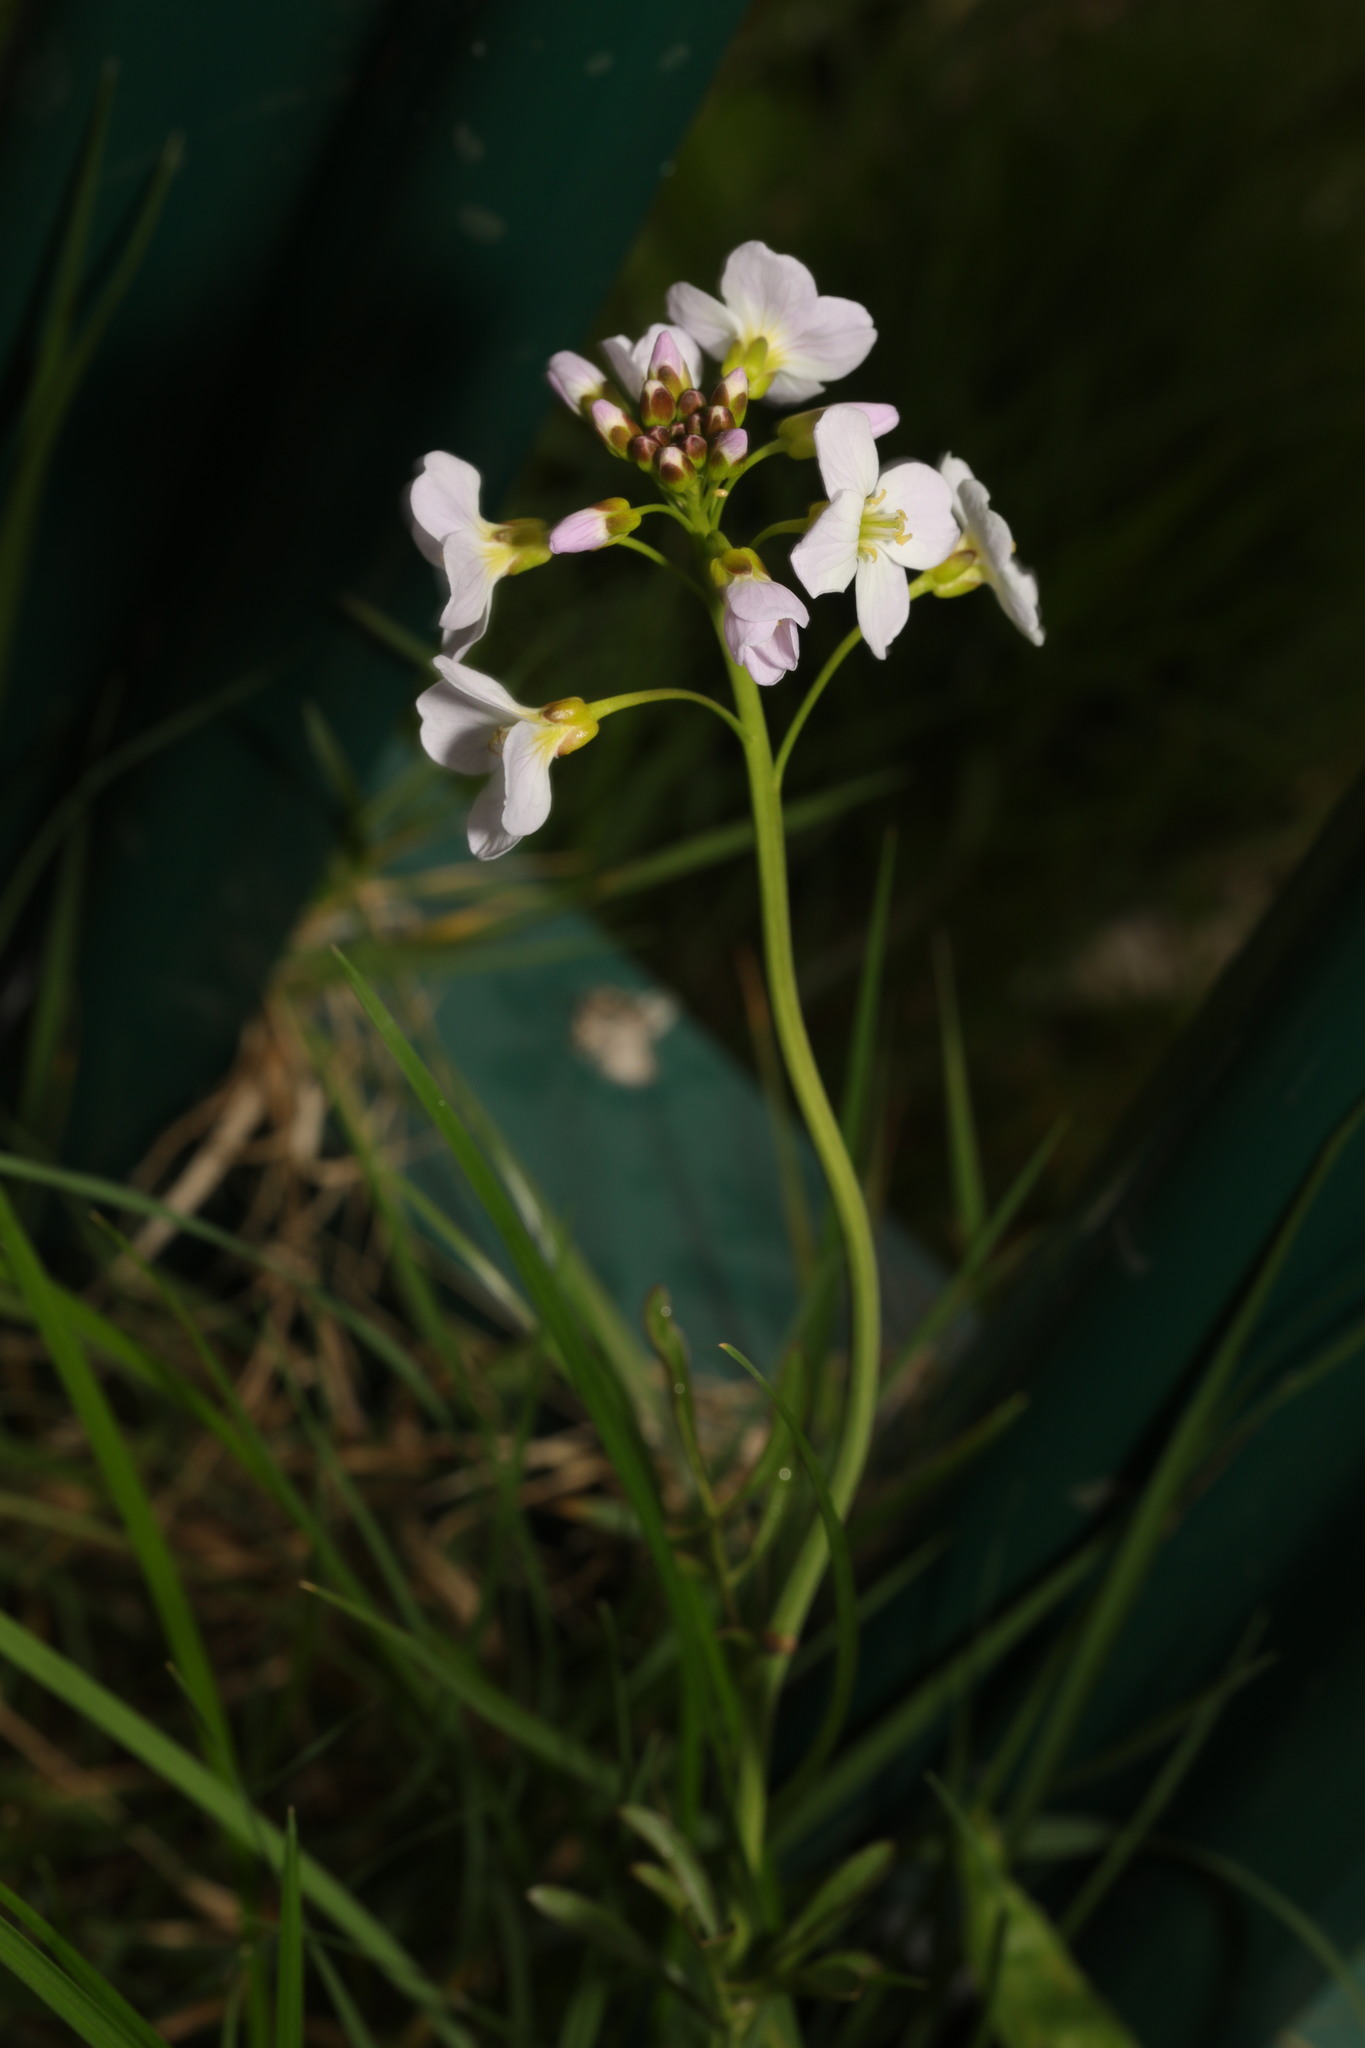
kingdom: Plantae
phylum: Tracheophyta
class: Magnoliopsida
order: Brassicales
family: Brassicaceae
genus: Cardamine
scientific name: Cardamine pratensis
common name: Cuckoo flower
